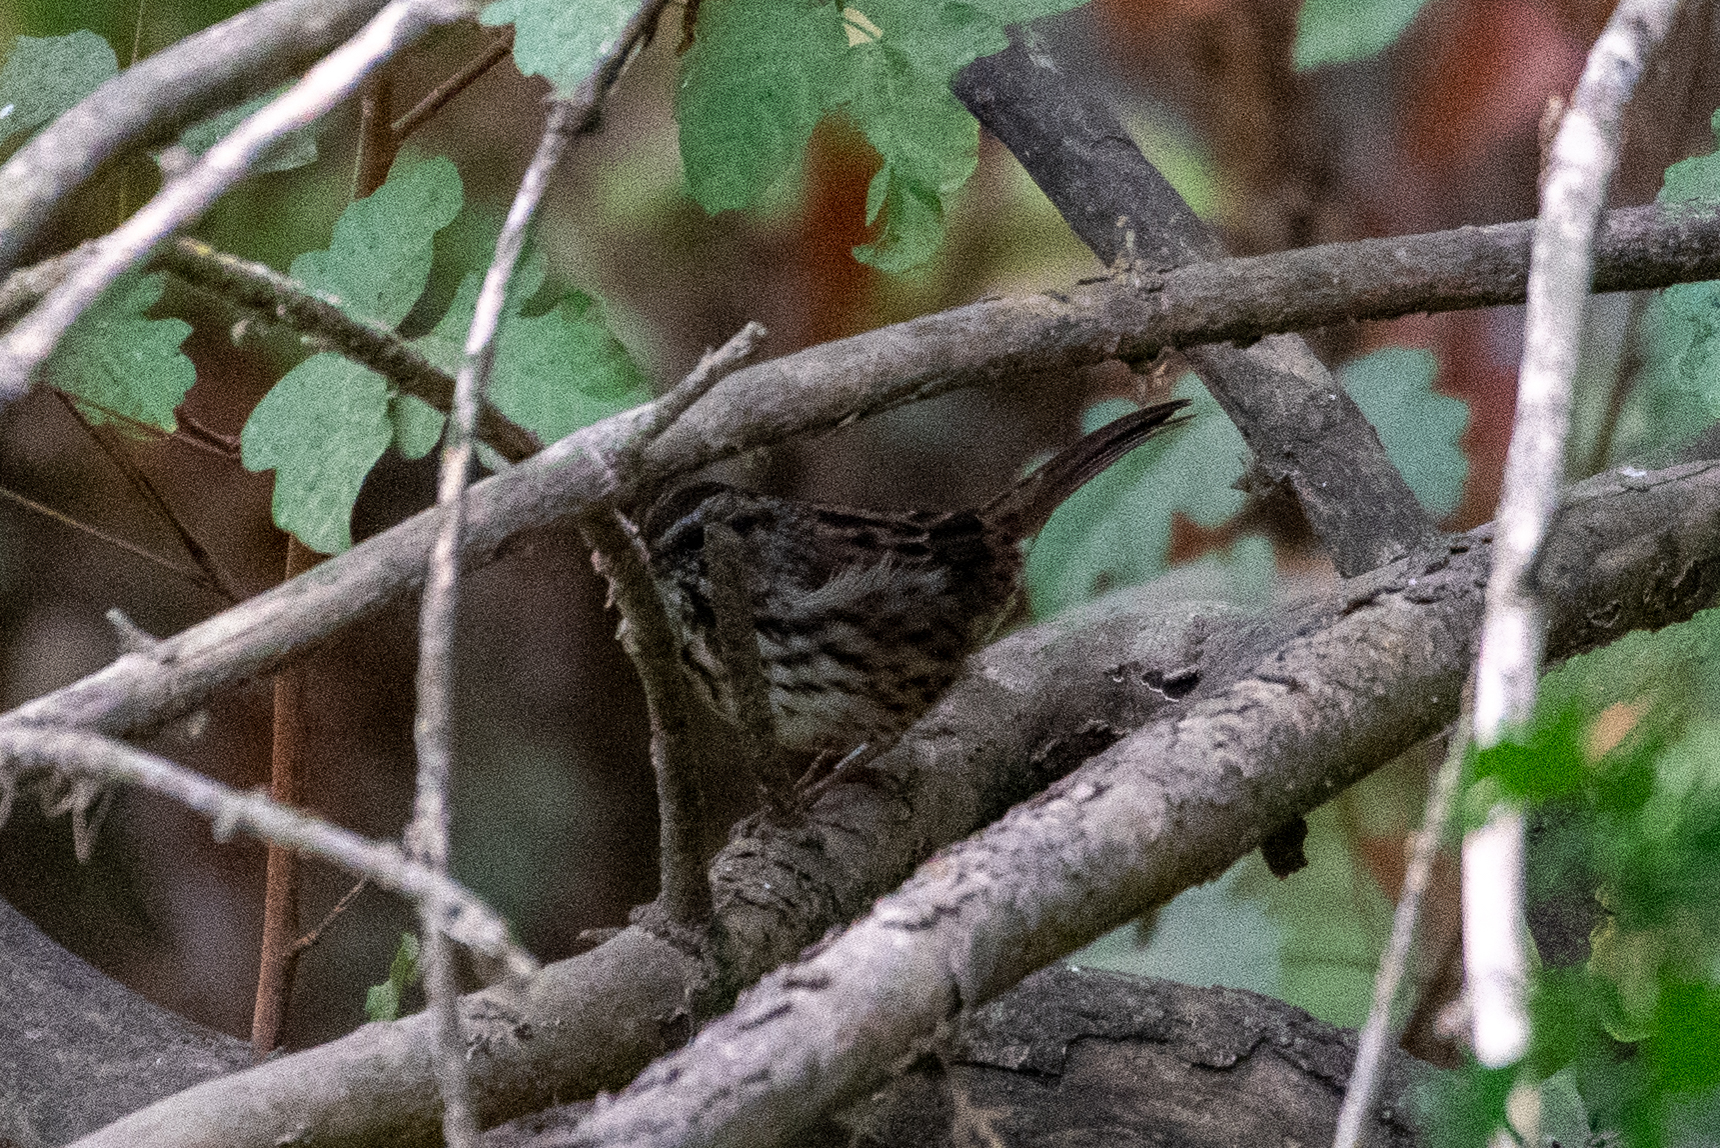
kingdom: Animalia
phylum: Chordata
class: Aves
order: Passeriformes
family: Passerellidae
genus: Melospiza
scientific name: Melospiza melodia
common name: Song sparrow
